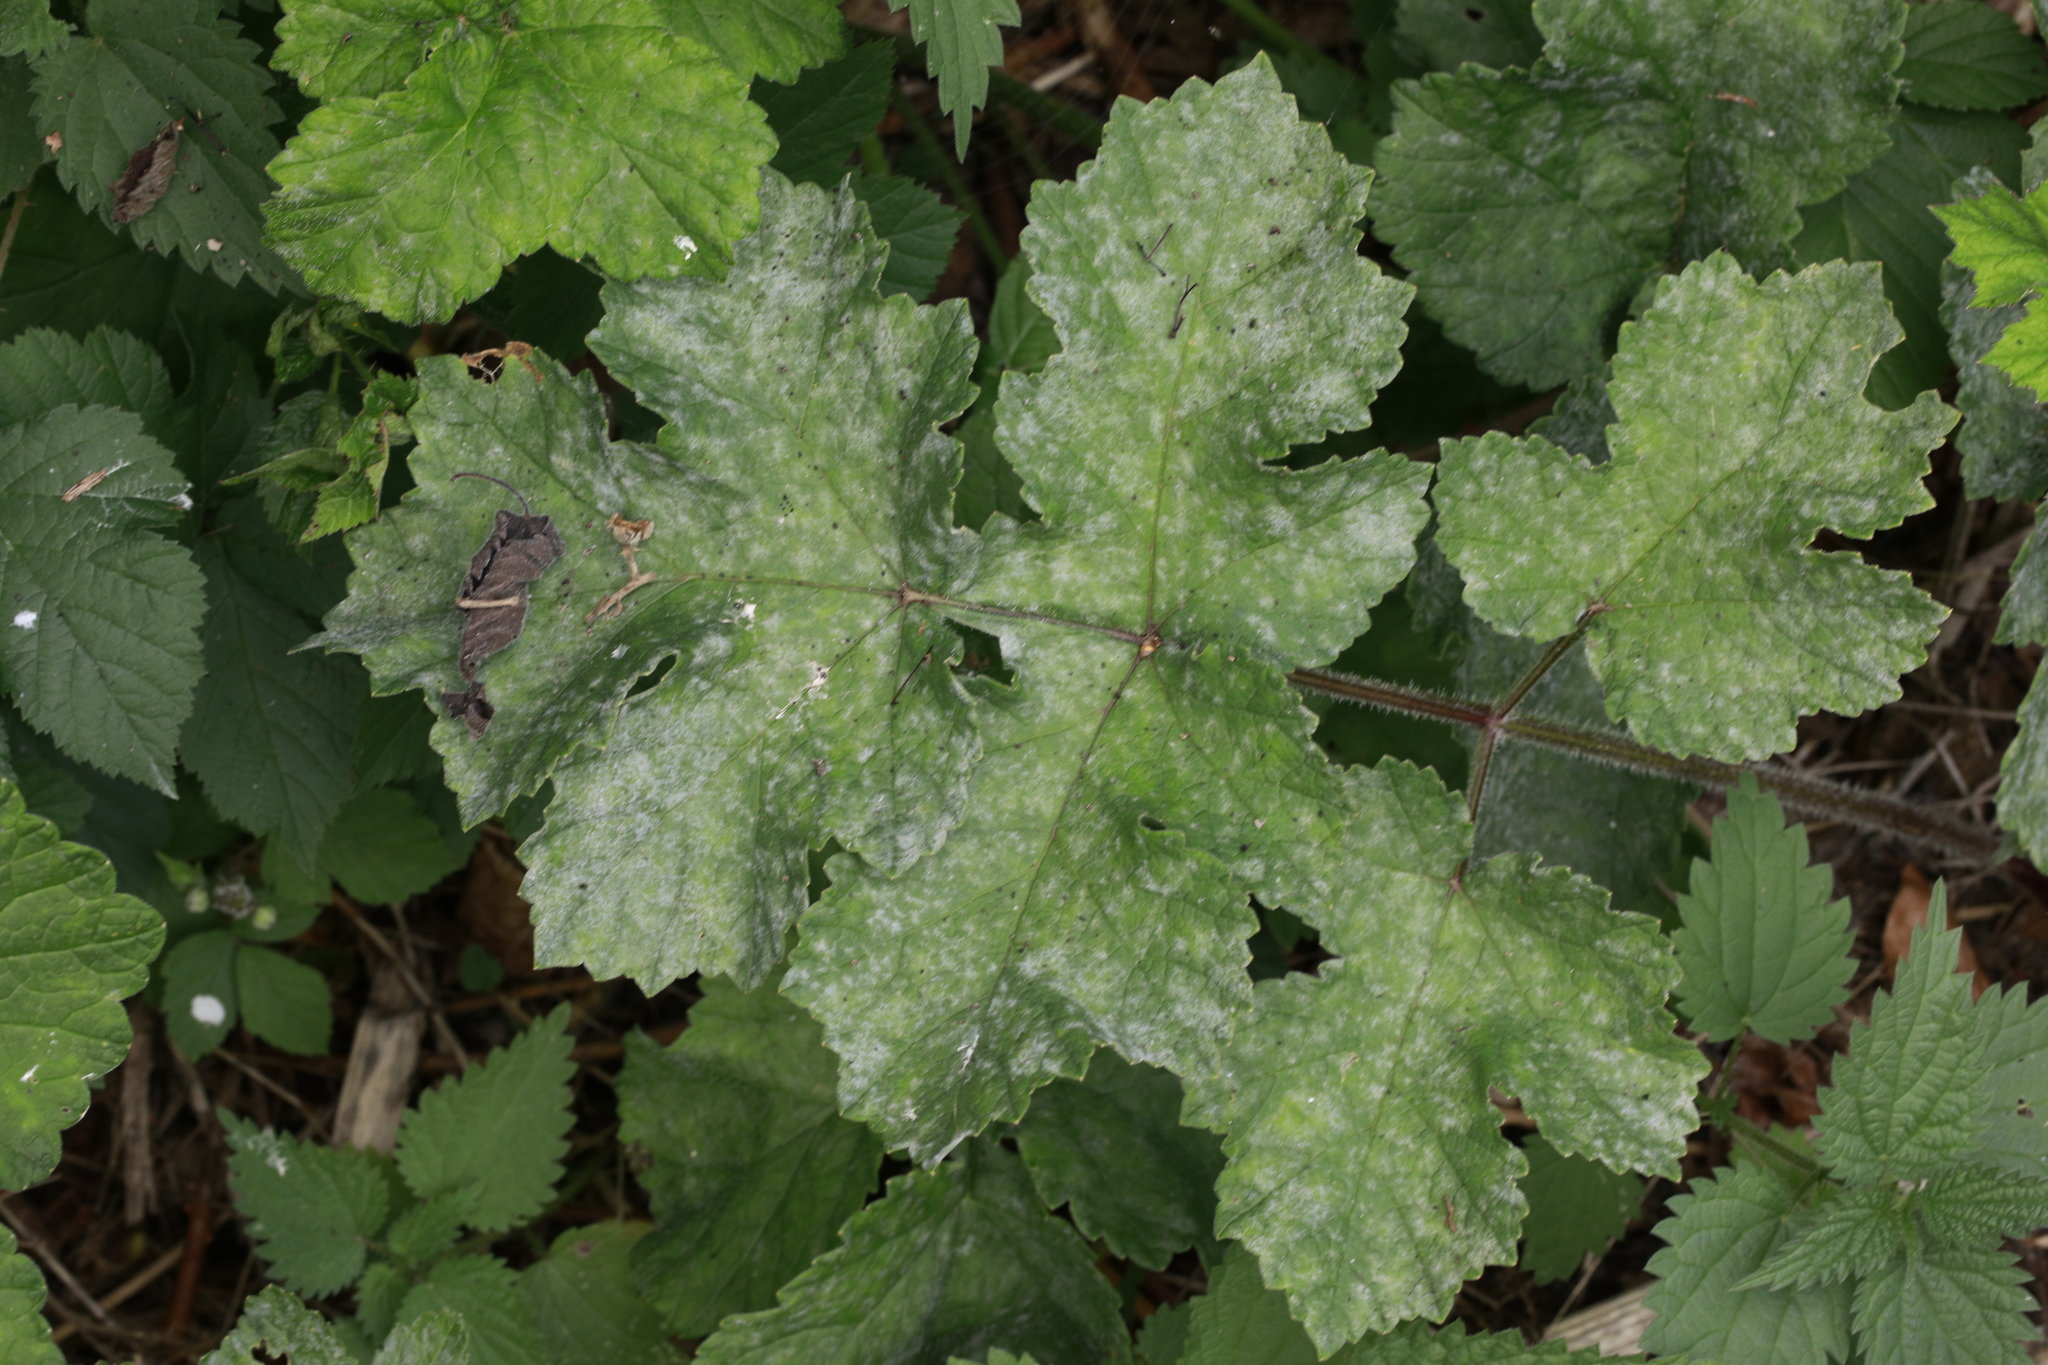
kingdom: Plantae
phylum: Tracheophyta
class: Magnoliopsida
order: Apiales
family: Apiaceae
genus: Heracleum
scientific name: Heracleum sphondylium
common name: Hogweed
